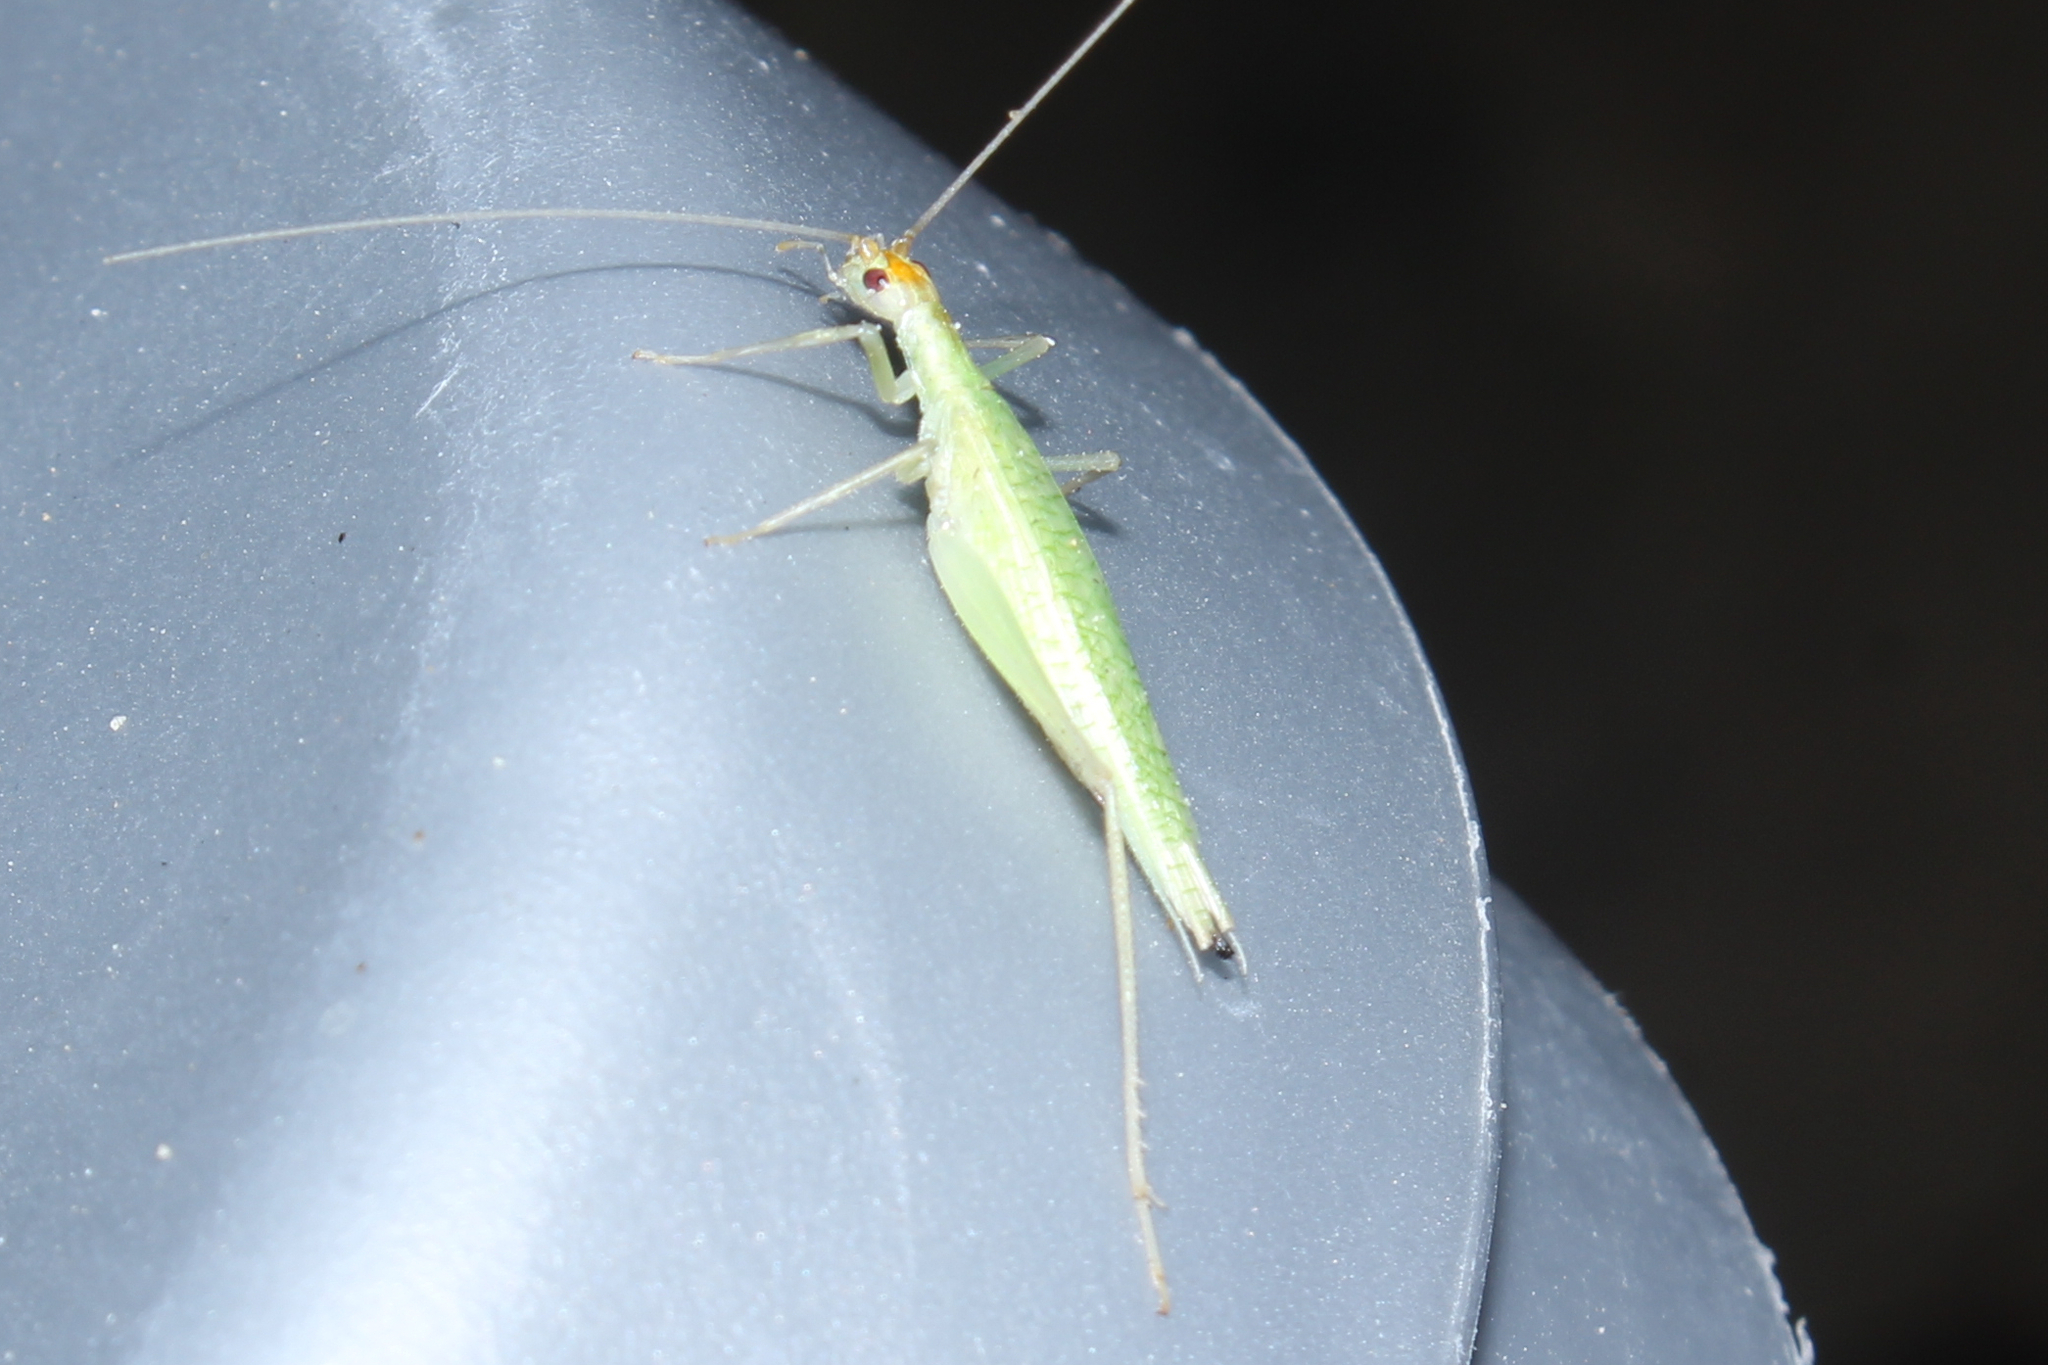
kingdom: Animalia
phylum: Arthropoda
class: Insecta
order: Orthoptera
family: Gryllidae
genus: Oecanthus
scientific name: Oecanthus
